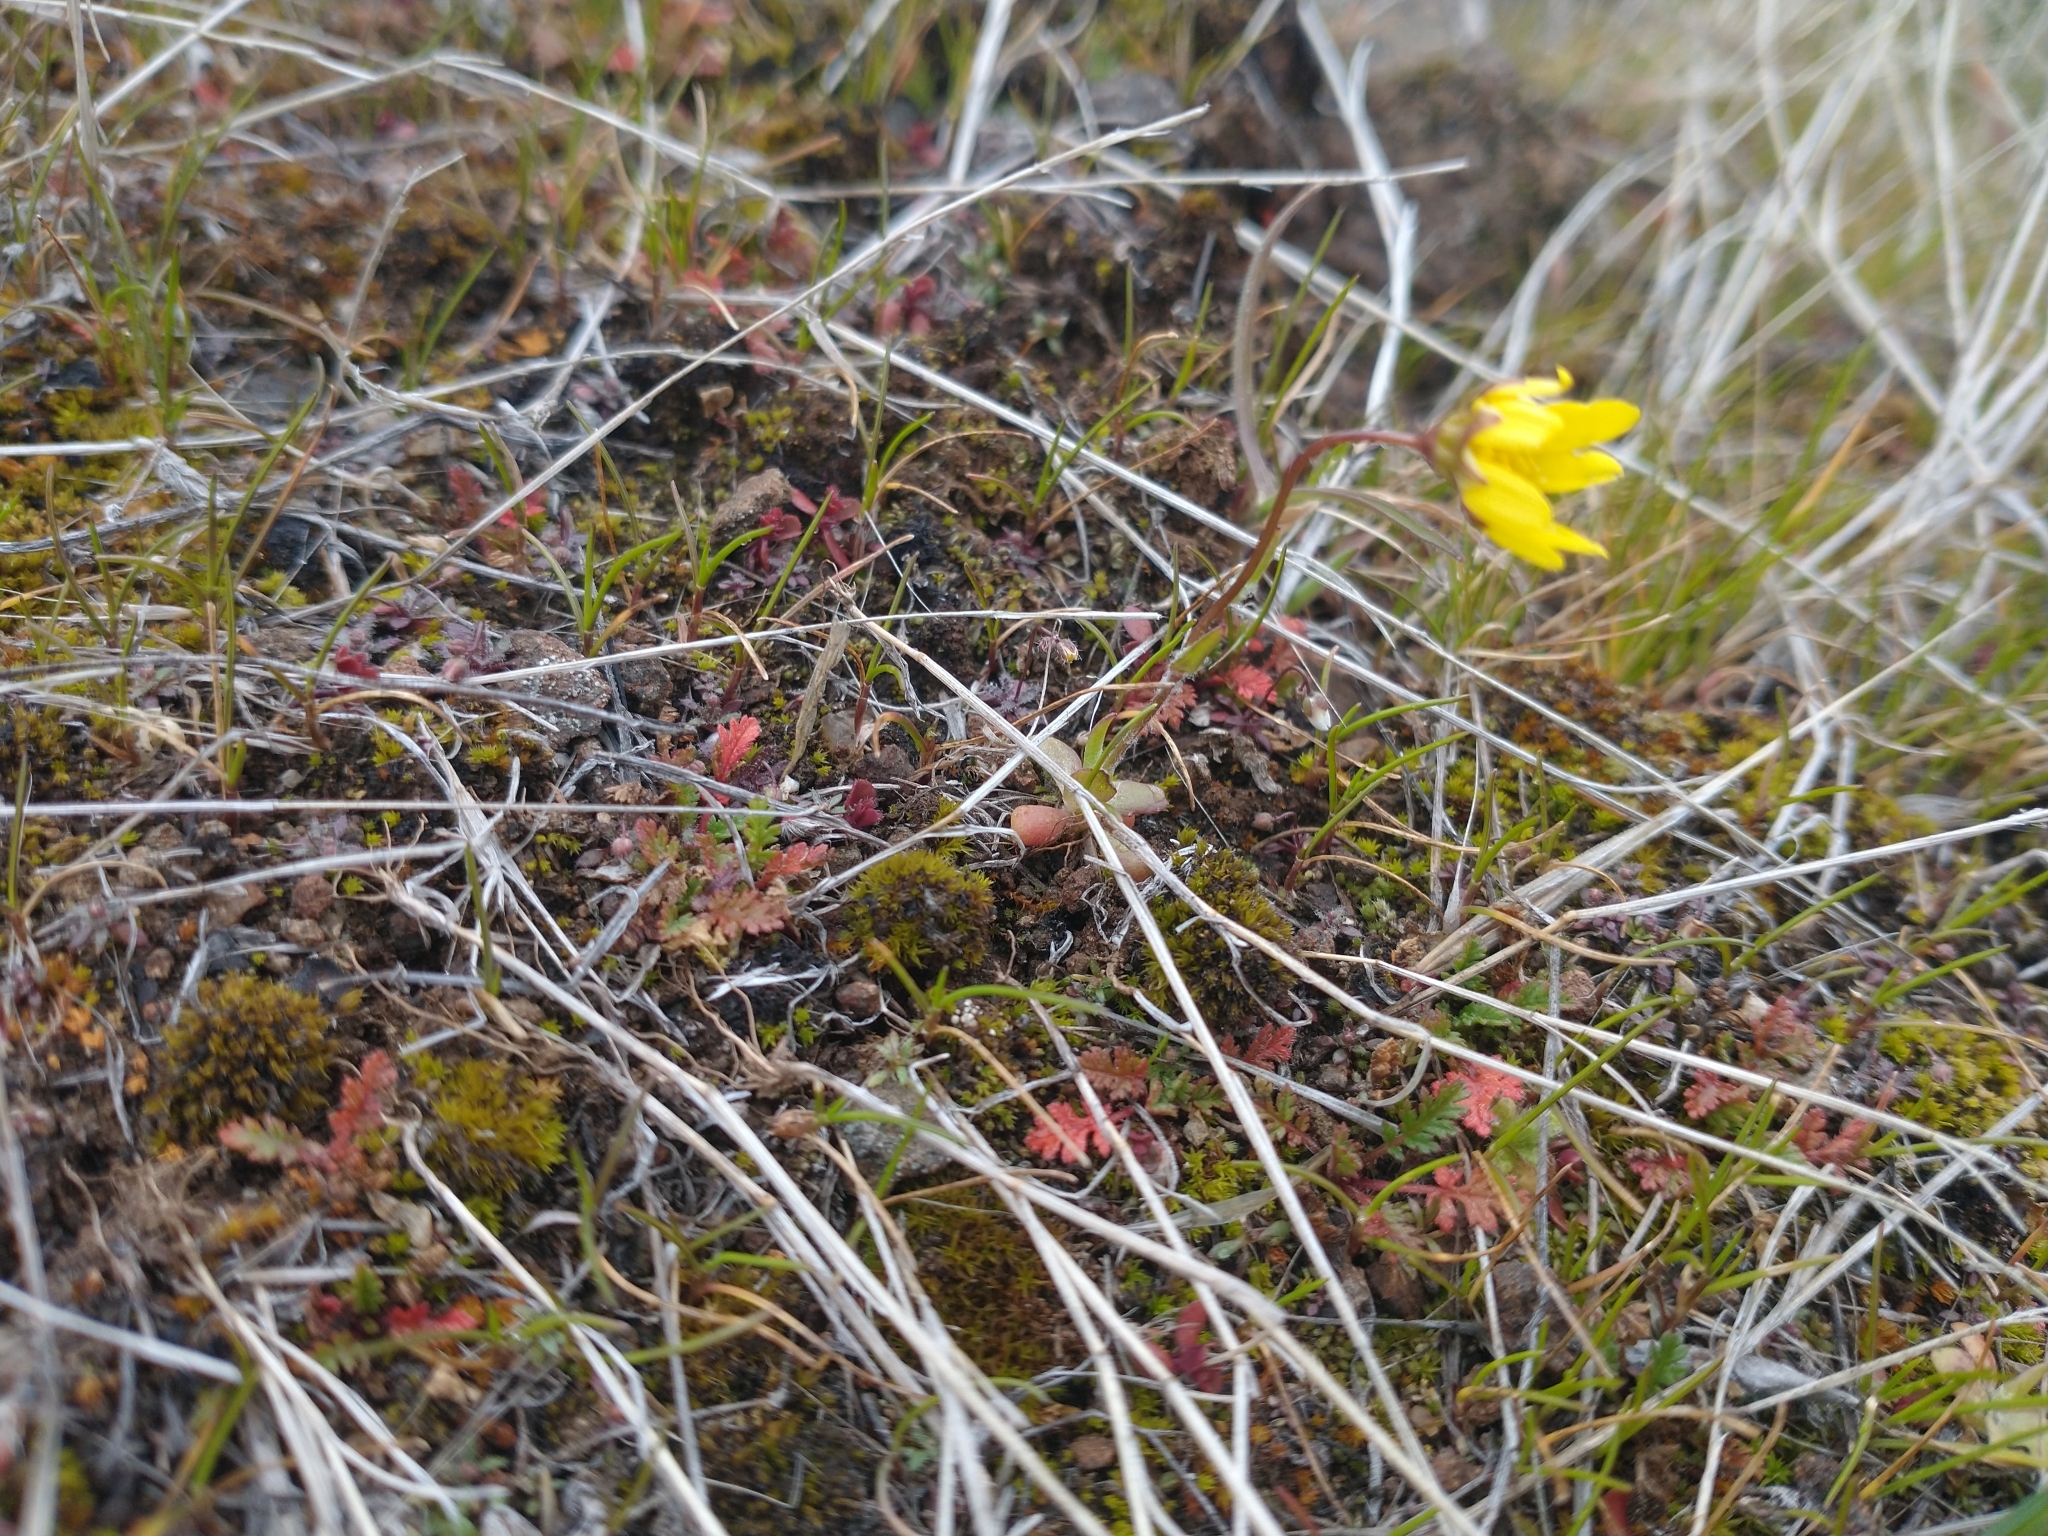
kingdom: Plantae
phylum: Tracheophyta
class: Magnoliopsida
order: Asterales
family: Asteraceae
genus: Crocidium
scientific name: Crocidium multicaule
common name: Common spring gold
